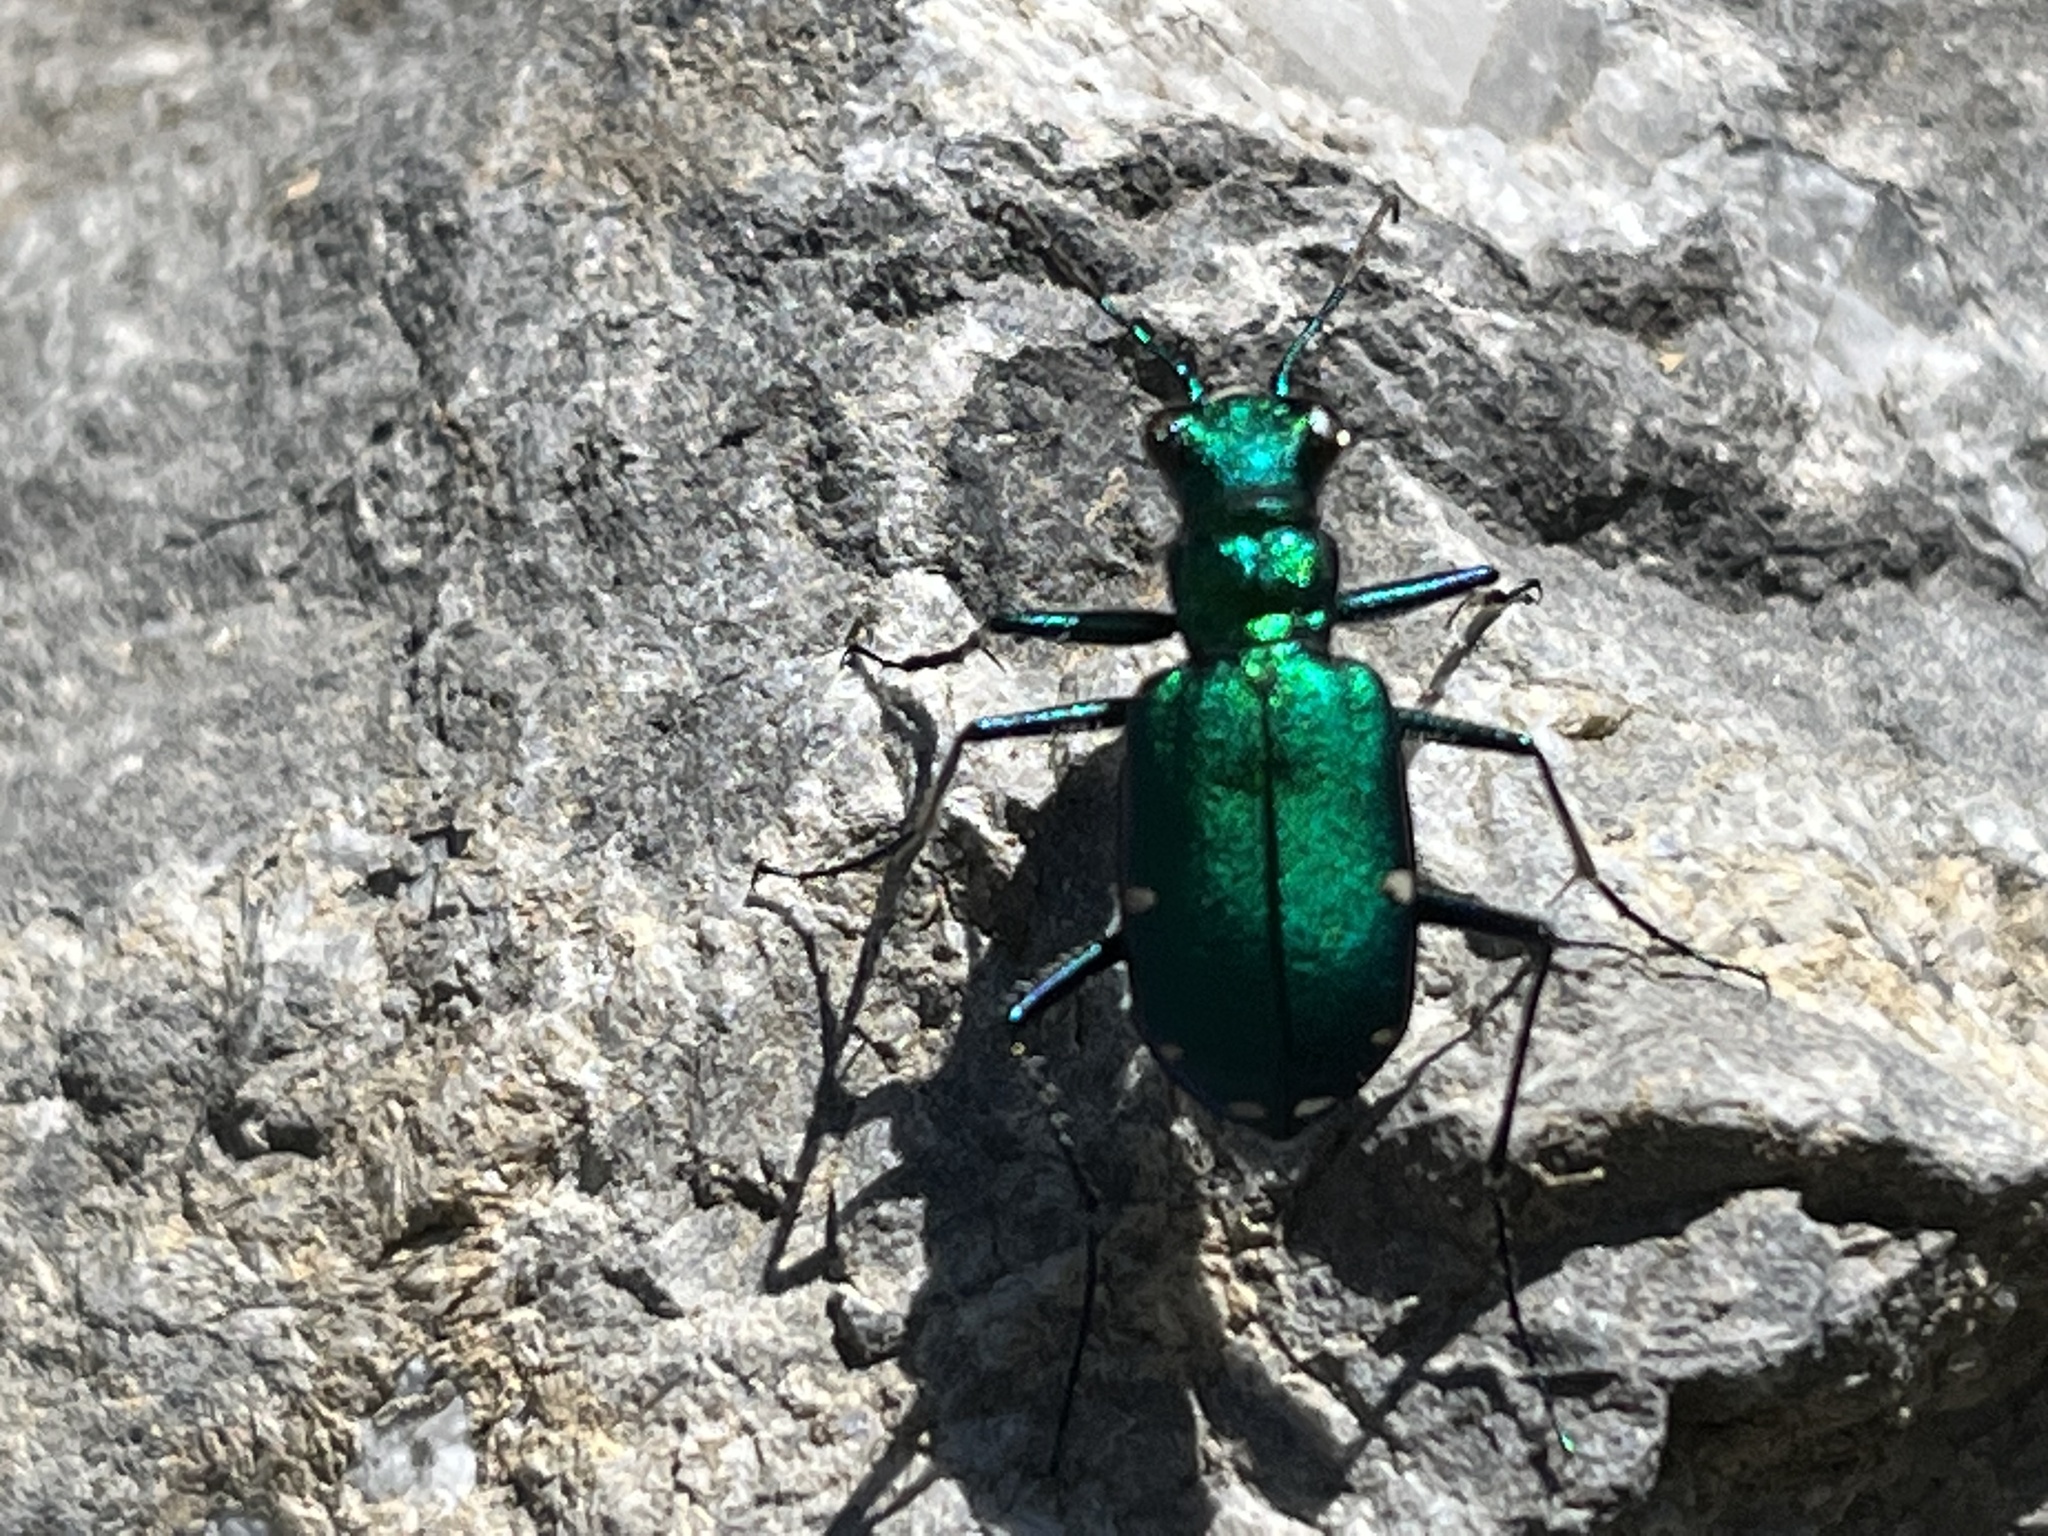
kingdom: Animalia
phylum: Arthropoda
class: Insecta
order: Coleoptera
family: Carabidae
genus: Cicindela
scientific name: Cicindela sexguttata
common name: Six-spotted tiger beetle
